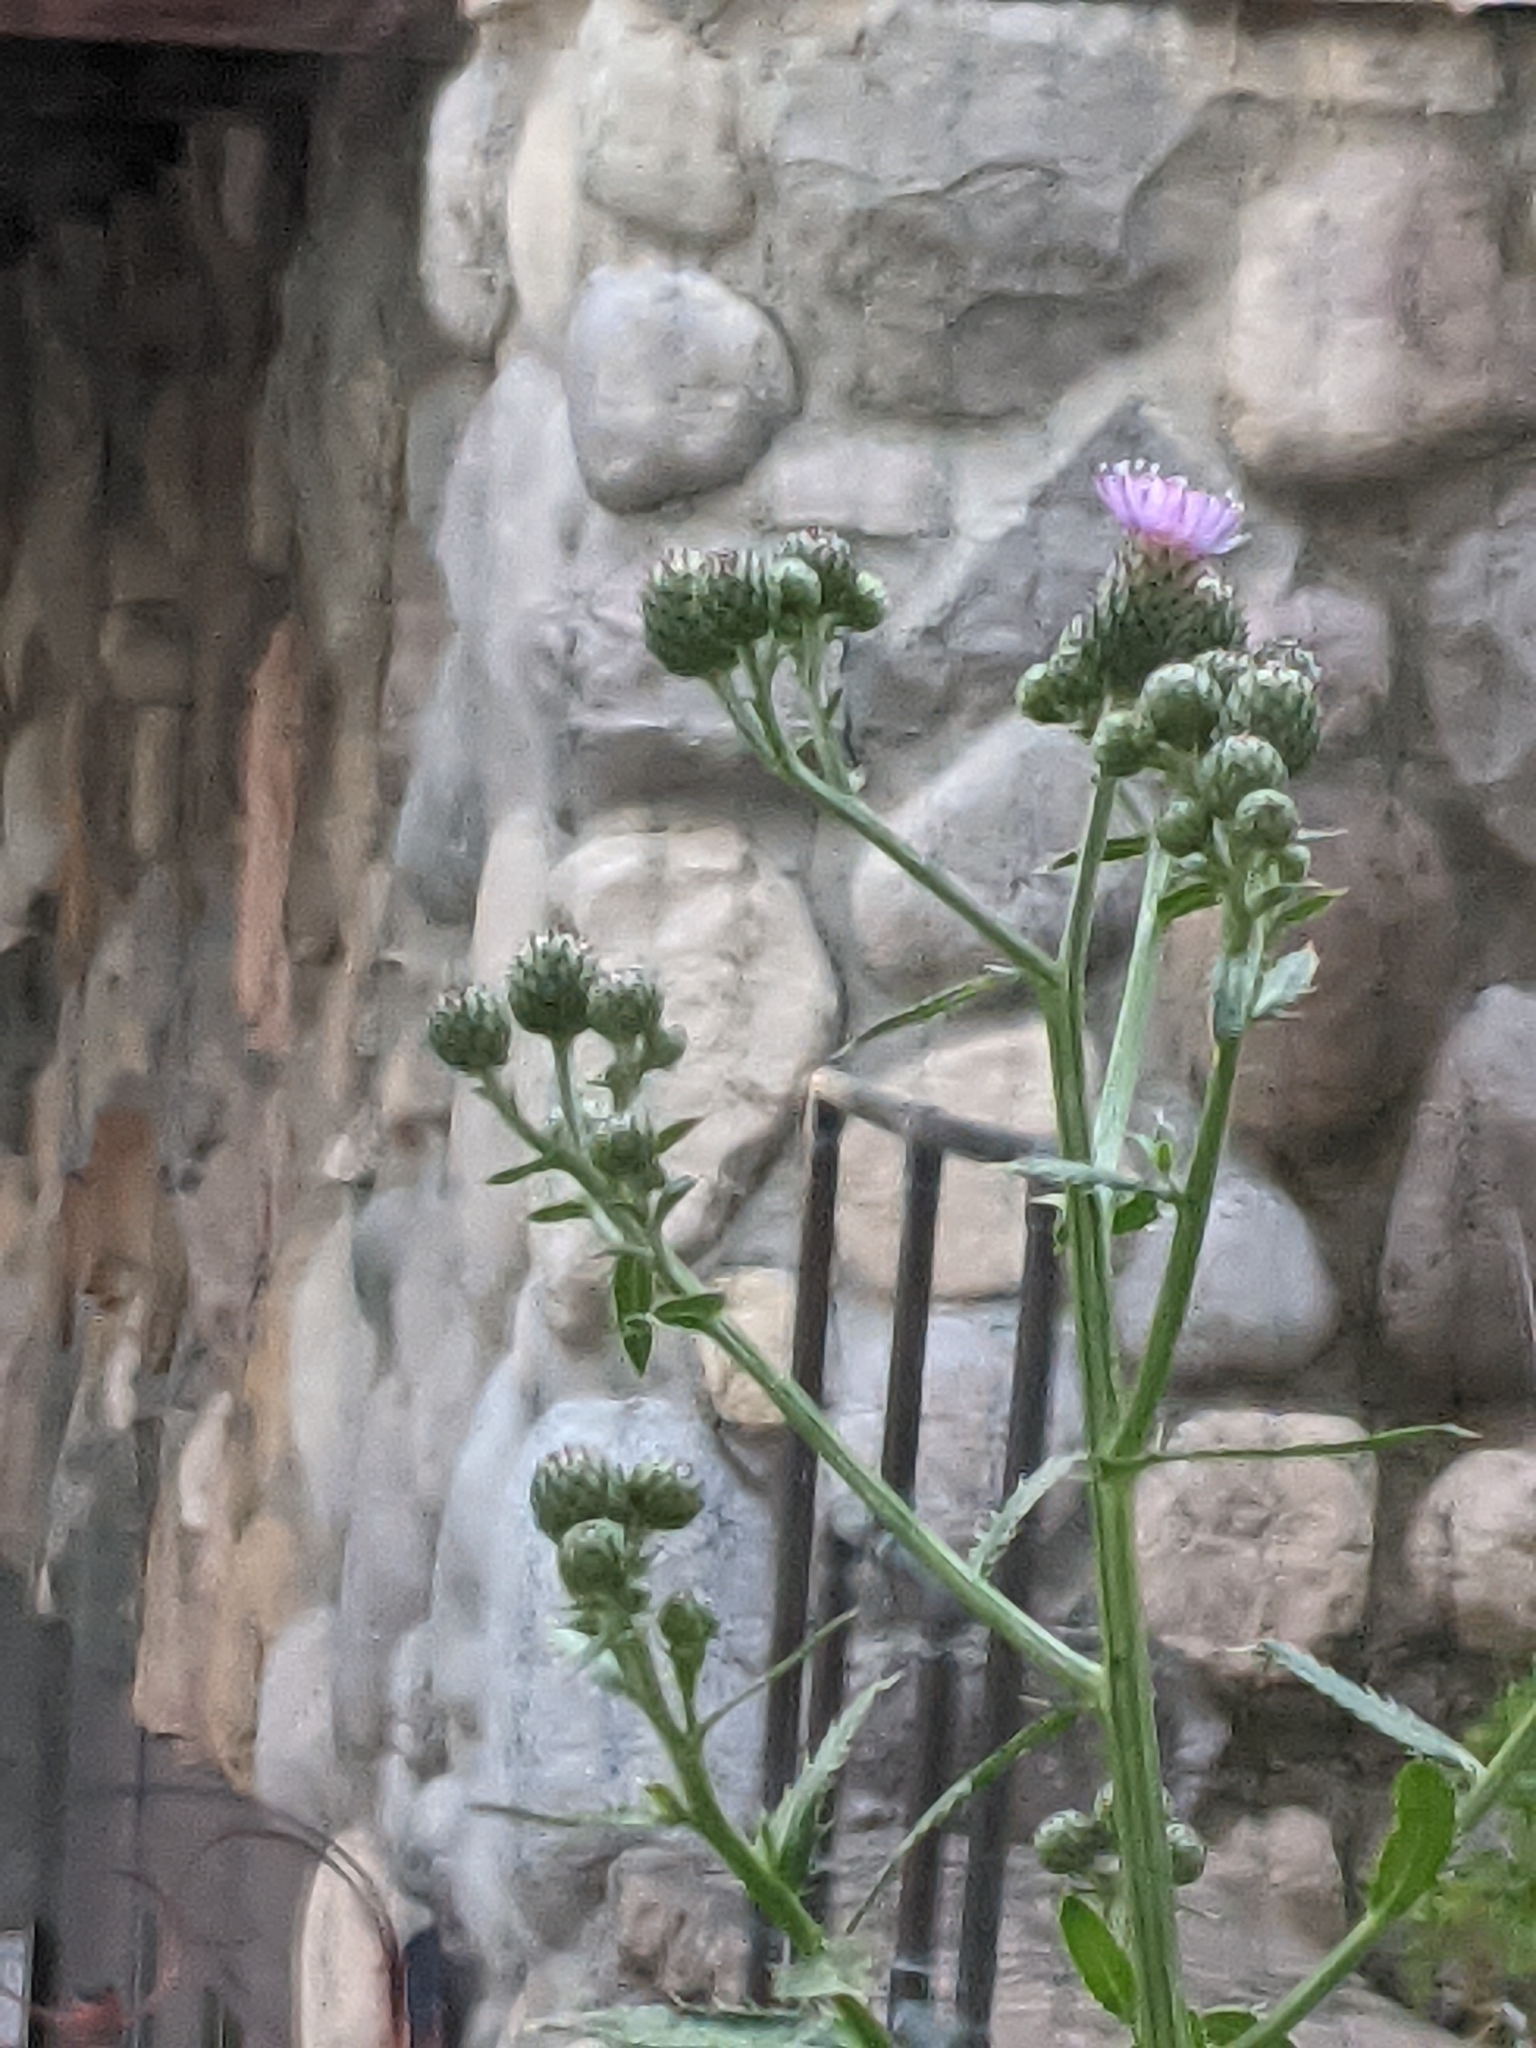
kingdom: Plantae
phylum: Tracheophyta
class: Magnoliopsida
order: Asterales
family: Asteraceae
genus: Cirsium
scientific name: Cirsium arvense
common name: Creeping thistle
